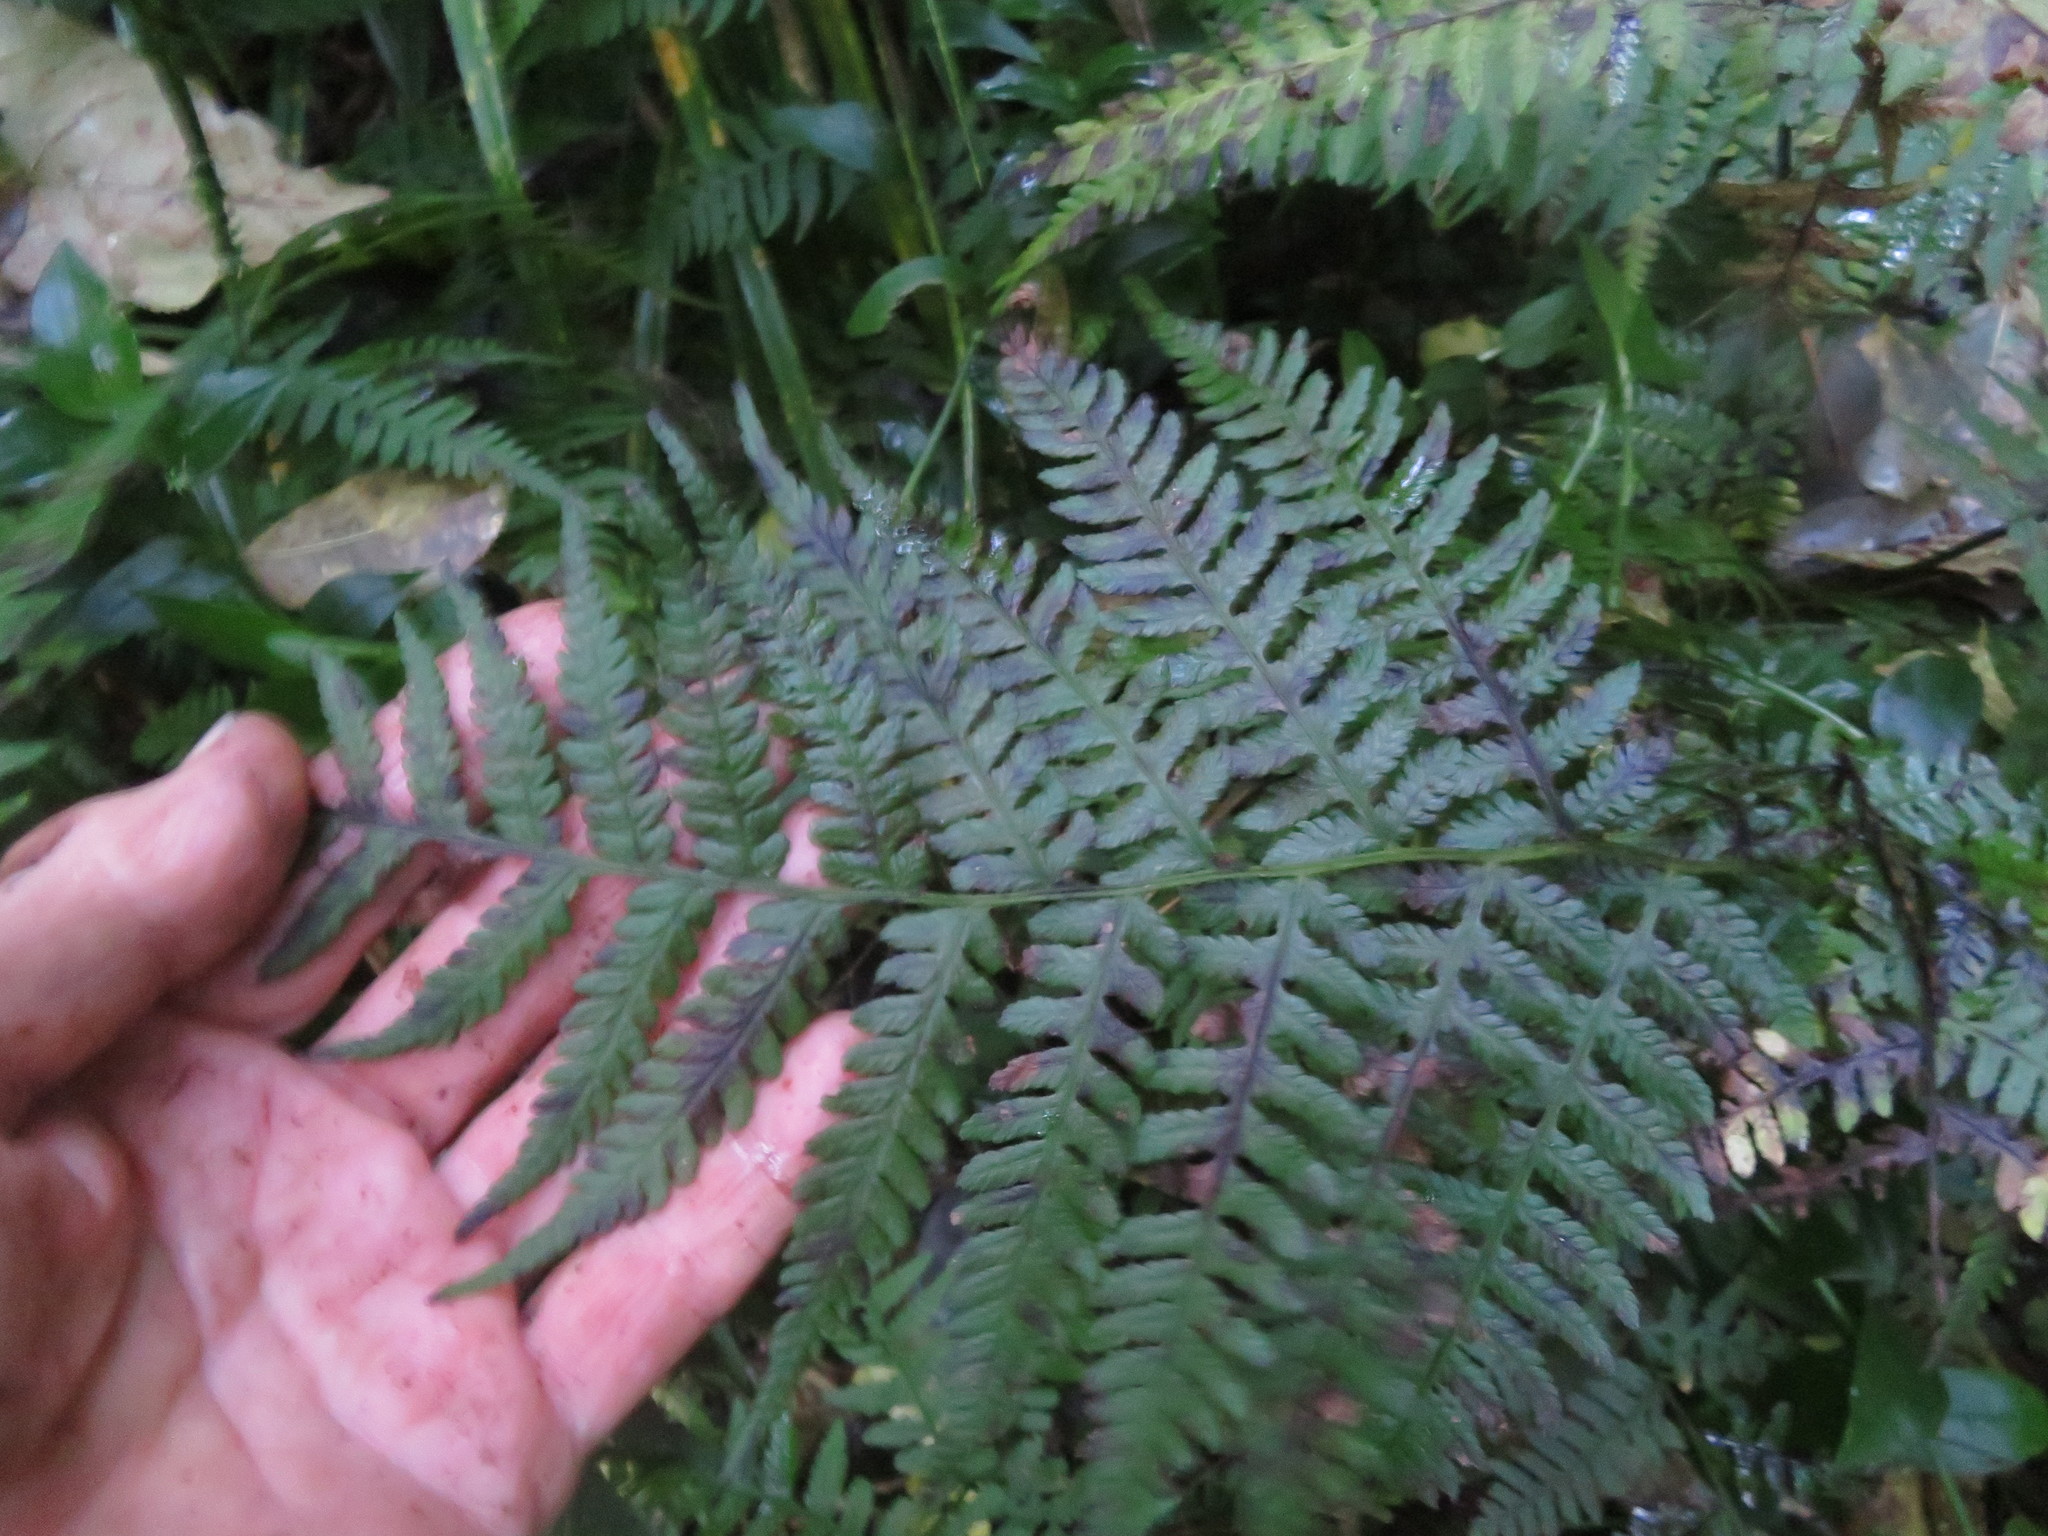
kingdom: Plantae
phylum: Tracheophyta
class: Polypodiopsida
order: Polypodiales
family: Athyriaceae
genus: Deparia
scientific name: Deparia petersenii
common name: Japanese false spleenwort
